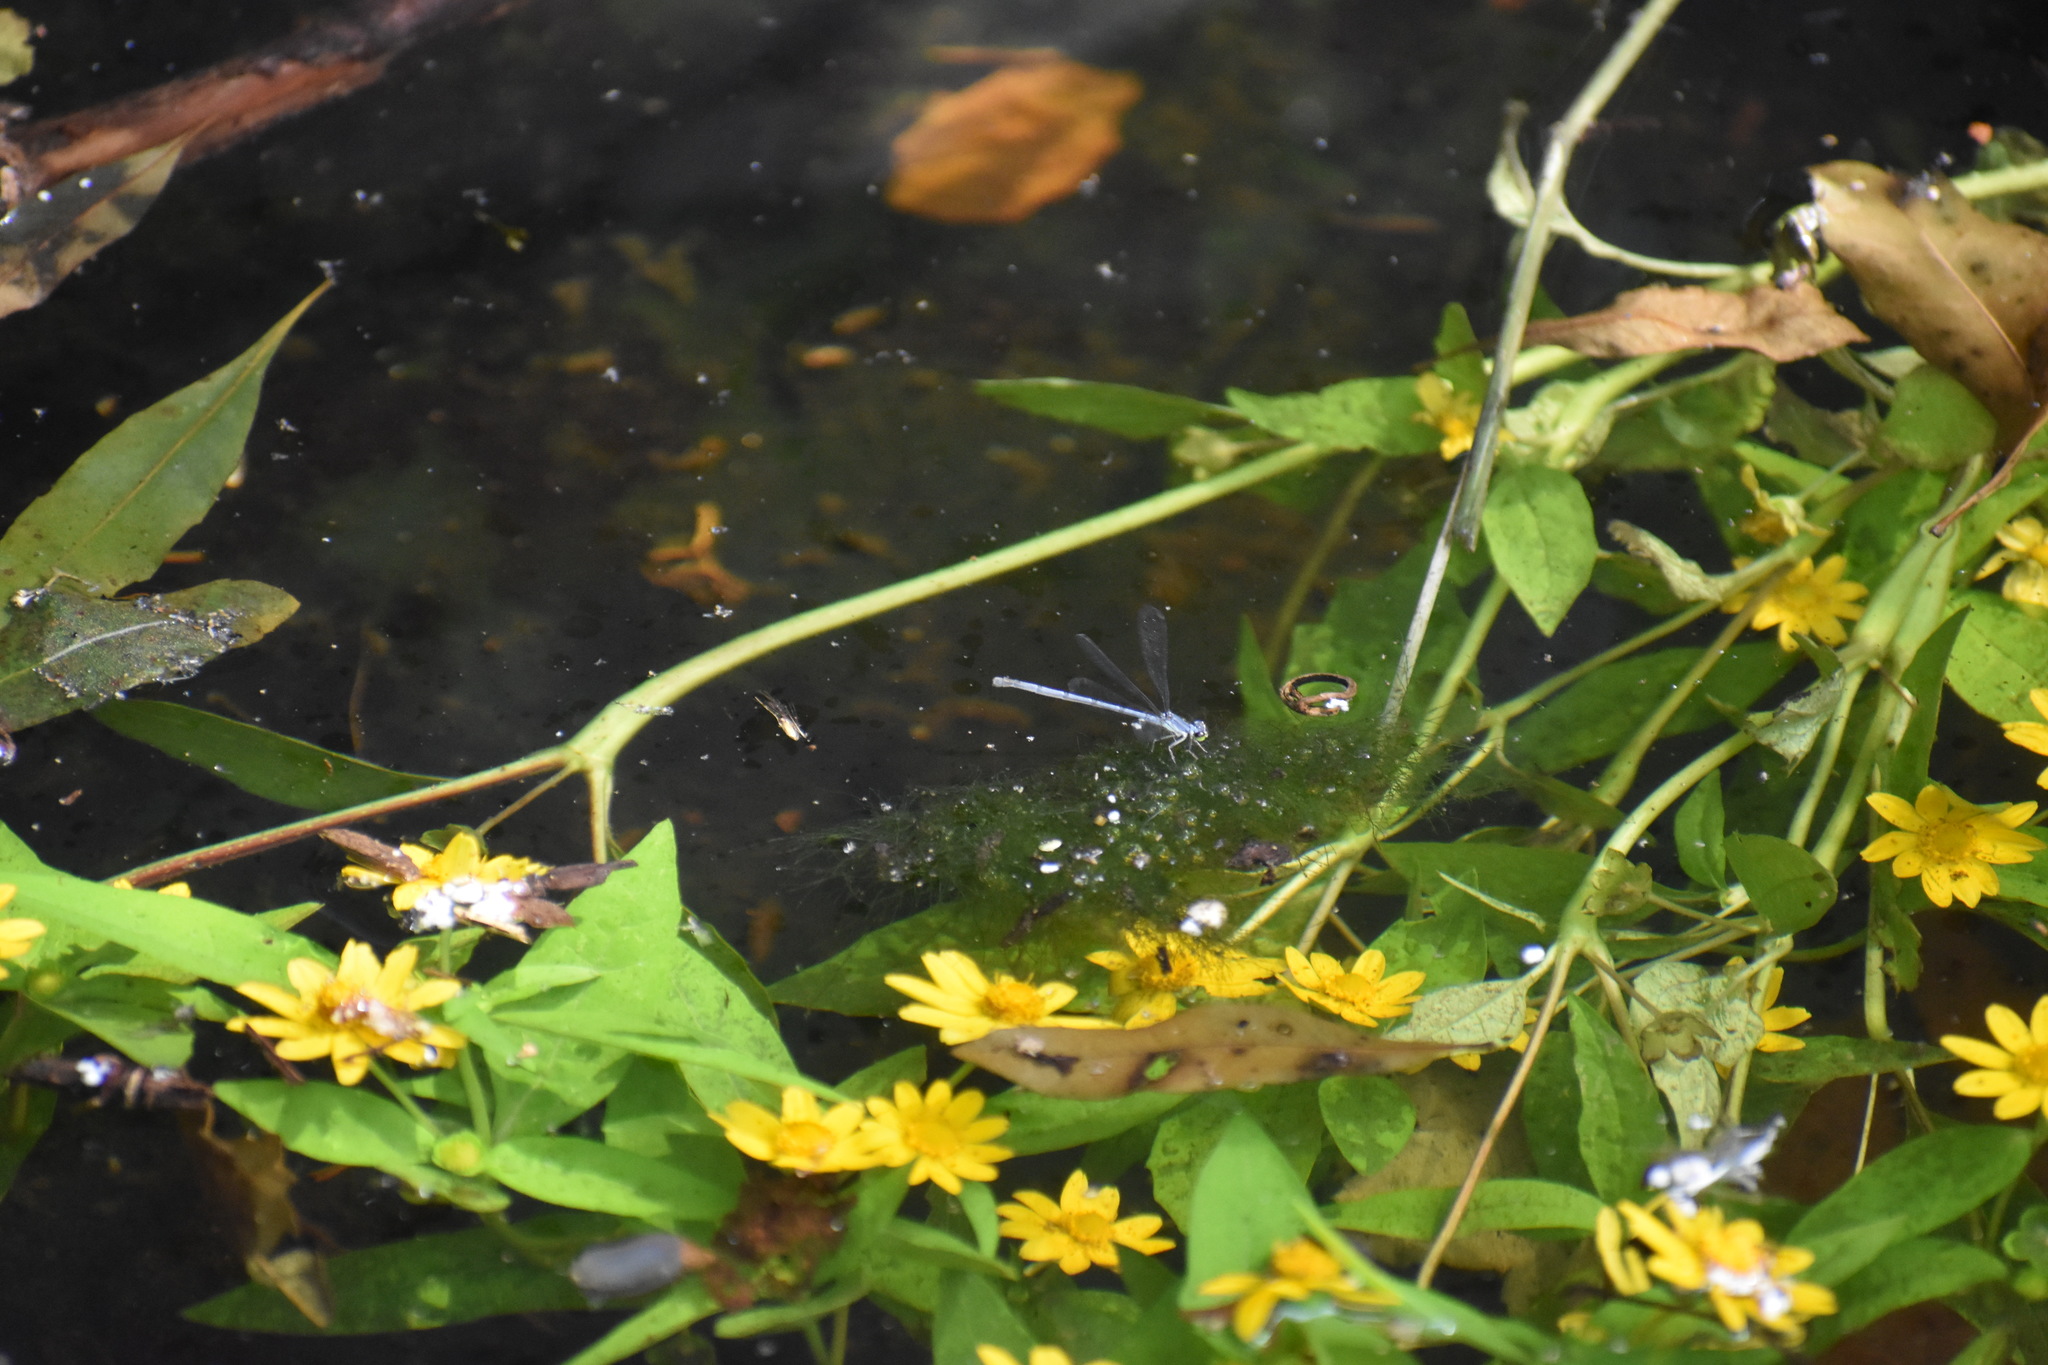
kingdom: Animalia
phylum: Arthropoda
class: Insecta
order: Odonata
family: Coenagrionidae
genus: Ischnura
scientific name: Ischnura verticalis
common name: Eastern forktail
